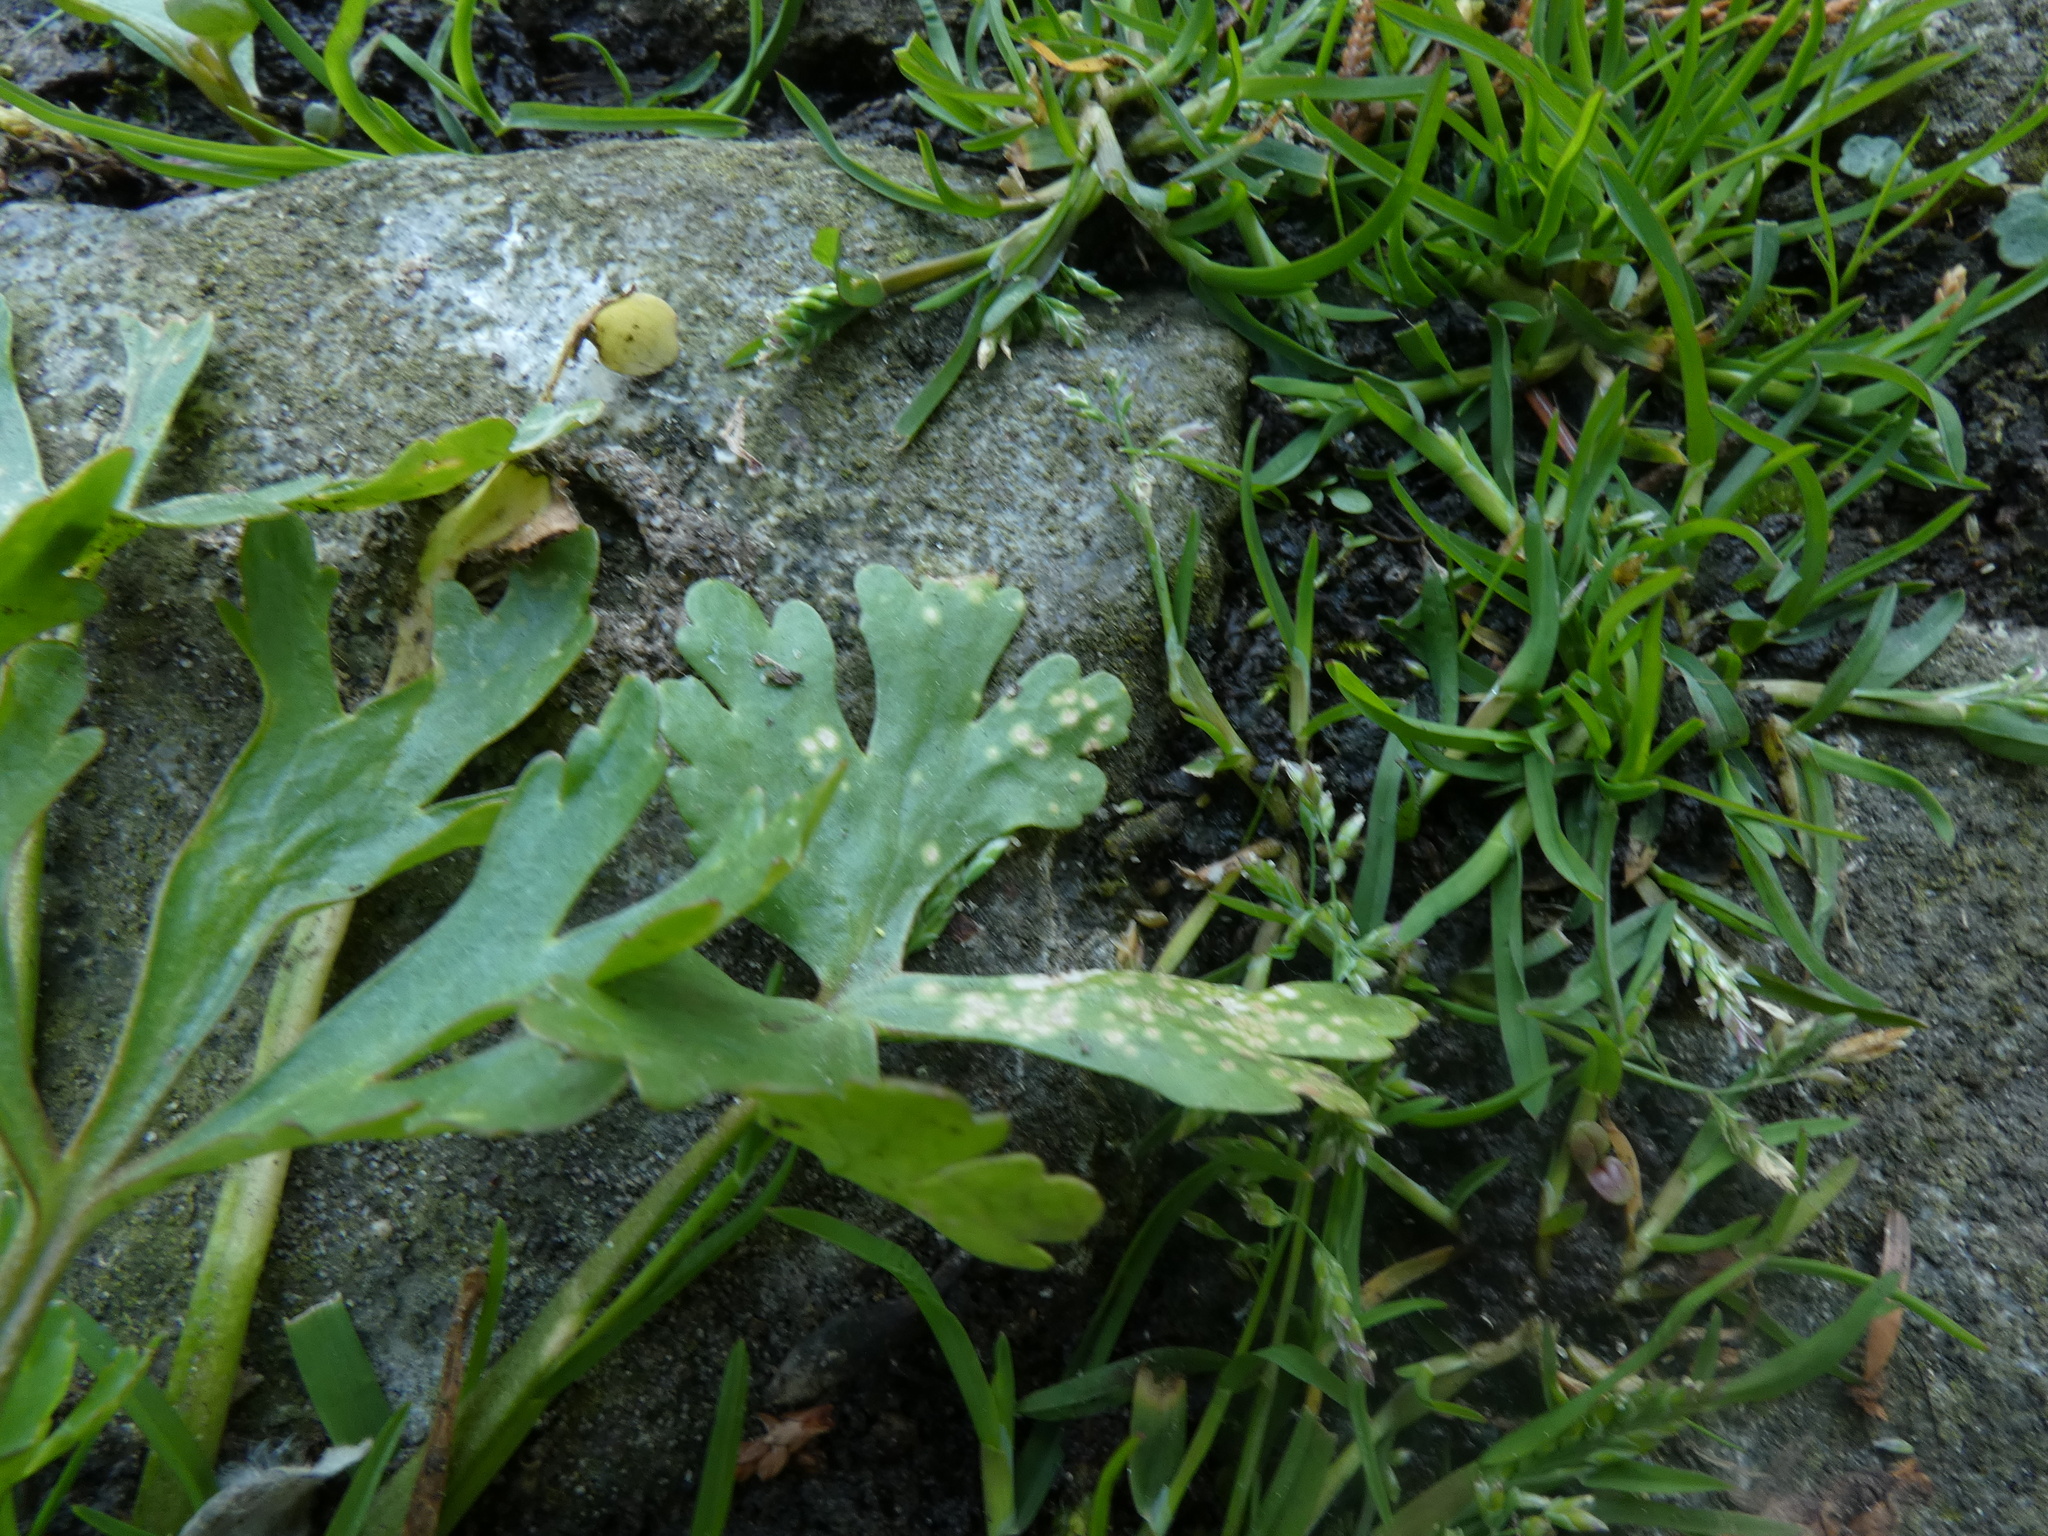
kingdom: Fungi
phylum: Basidiomycota
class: Exobasidiomycetes
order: Entylomatales
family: Entylomataceae
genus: Entyloma
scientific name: Entyloma ranunculi-scelerati
